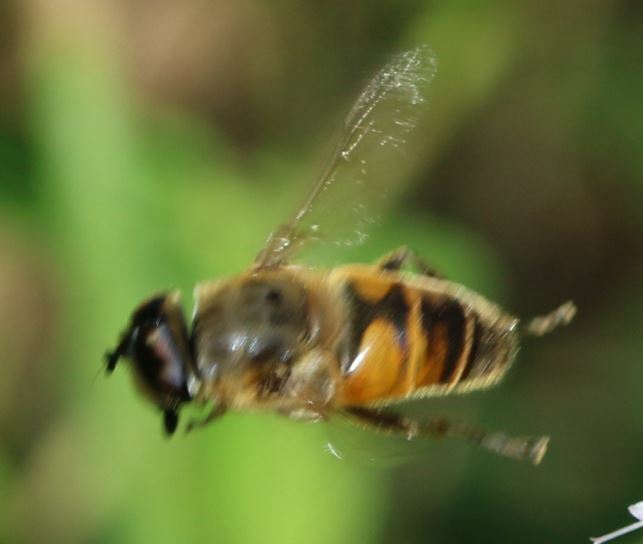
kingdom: Animalia
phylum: Arthropoda
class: Insecta
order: Diptera
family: Syrphidae
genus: Eristalis
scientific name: Eristalis tenax
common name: Drone fly
